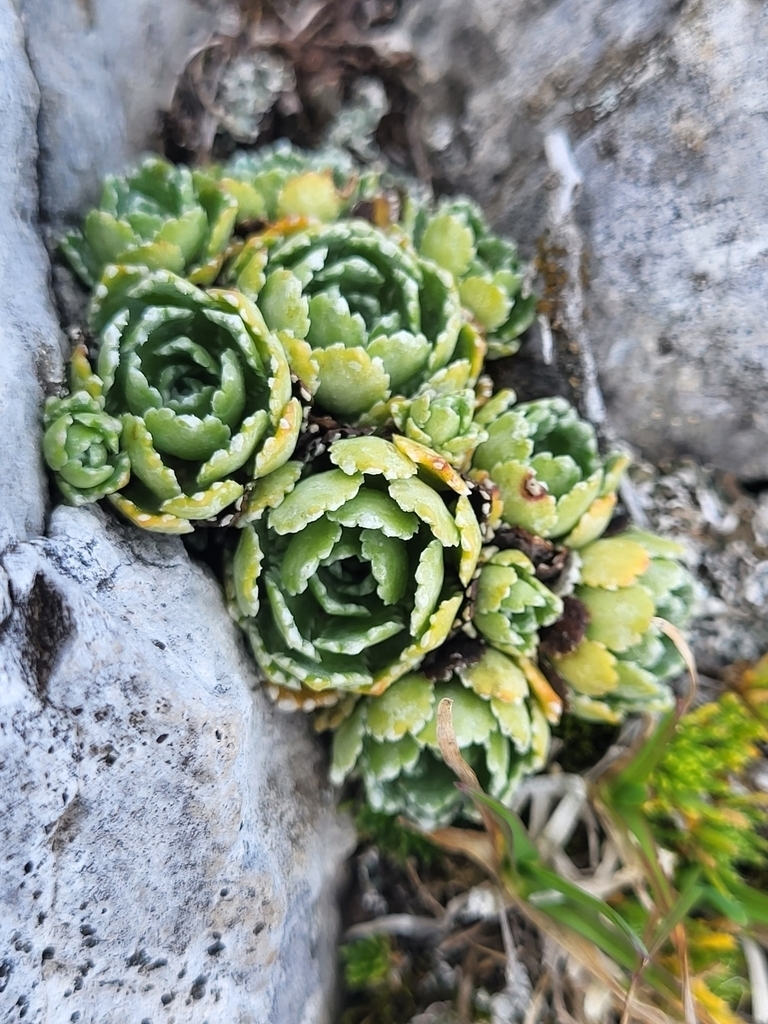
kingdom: Plantae
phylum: Tracheophyta
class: Magnoliopsida
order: Saxifragales
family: Saxifragaceae
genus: Saxifraga
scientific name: Saxifraga paniculata
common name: Livelong saxifrage
